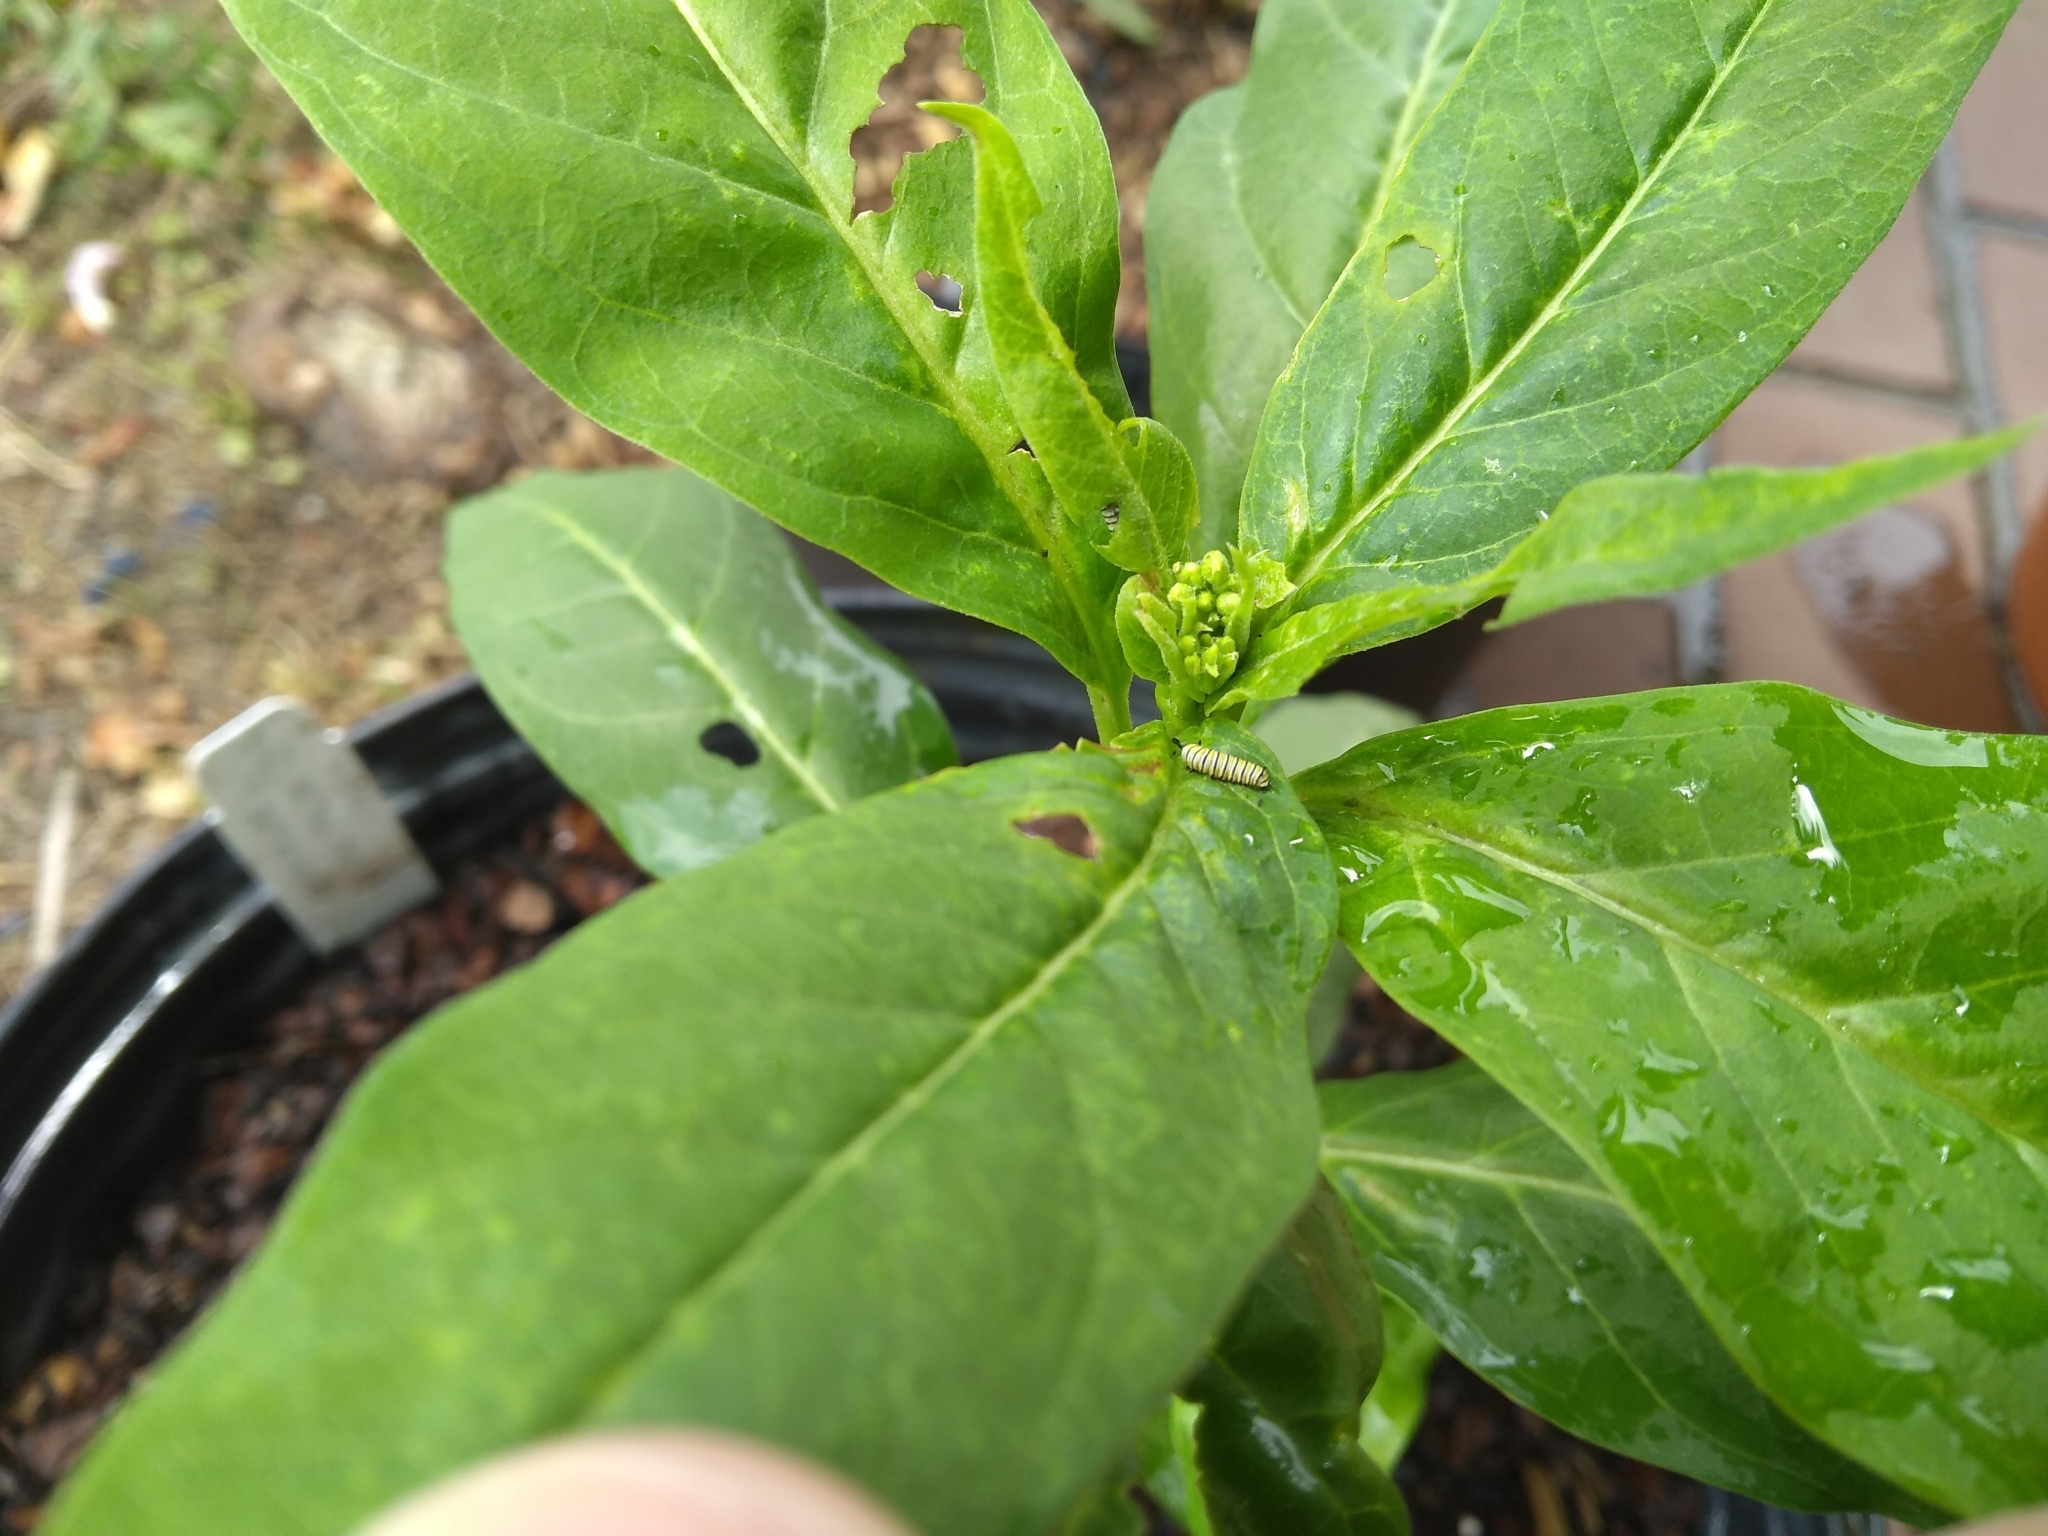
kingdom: Animalia
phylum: Arthropoda
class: Insecta
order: Lepidoptera
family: Nymphalidae
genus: Danaus
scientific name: Danaus plexippus
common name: Monarch
